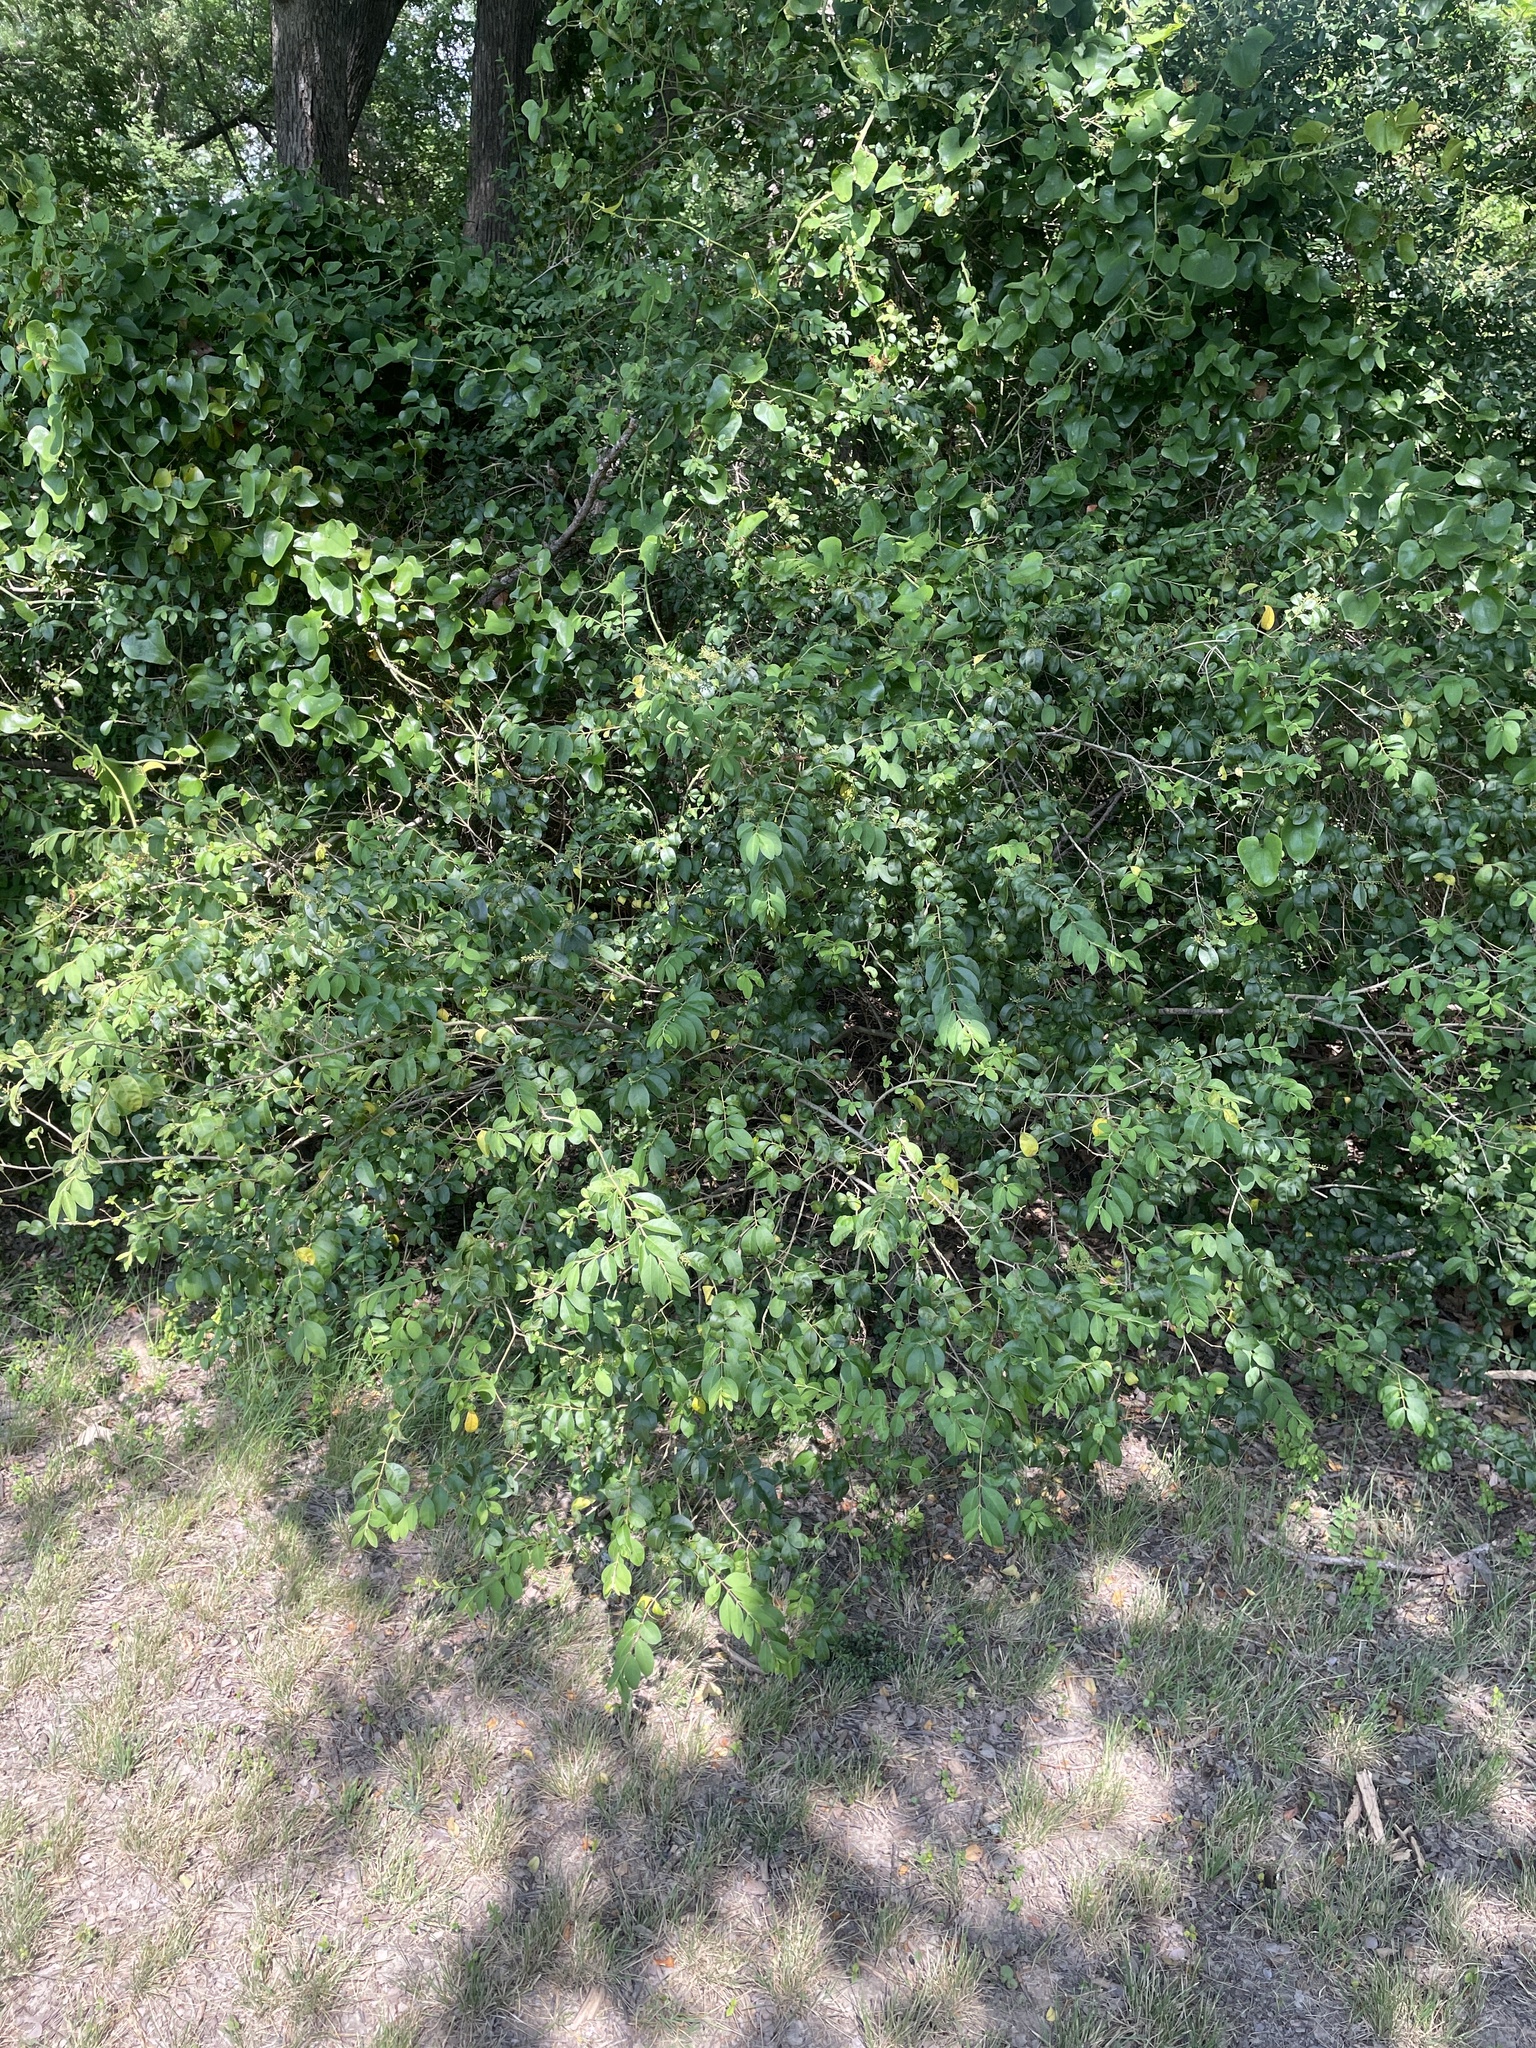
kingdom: Plantae
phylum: Tracheophyta
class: Magnoliopsida
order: Lamiales
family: Oleaceae
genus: Ligustrum
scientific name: Ligustrum sinense
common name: Chinese privet
